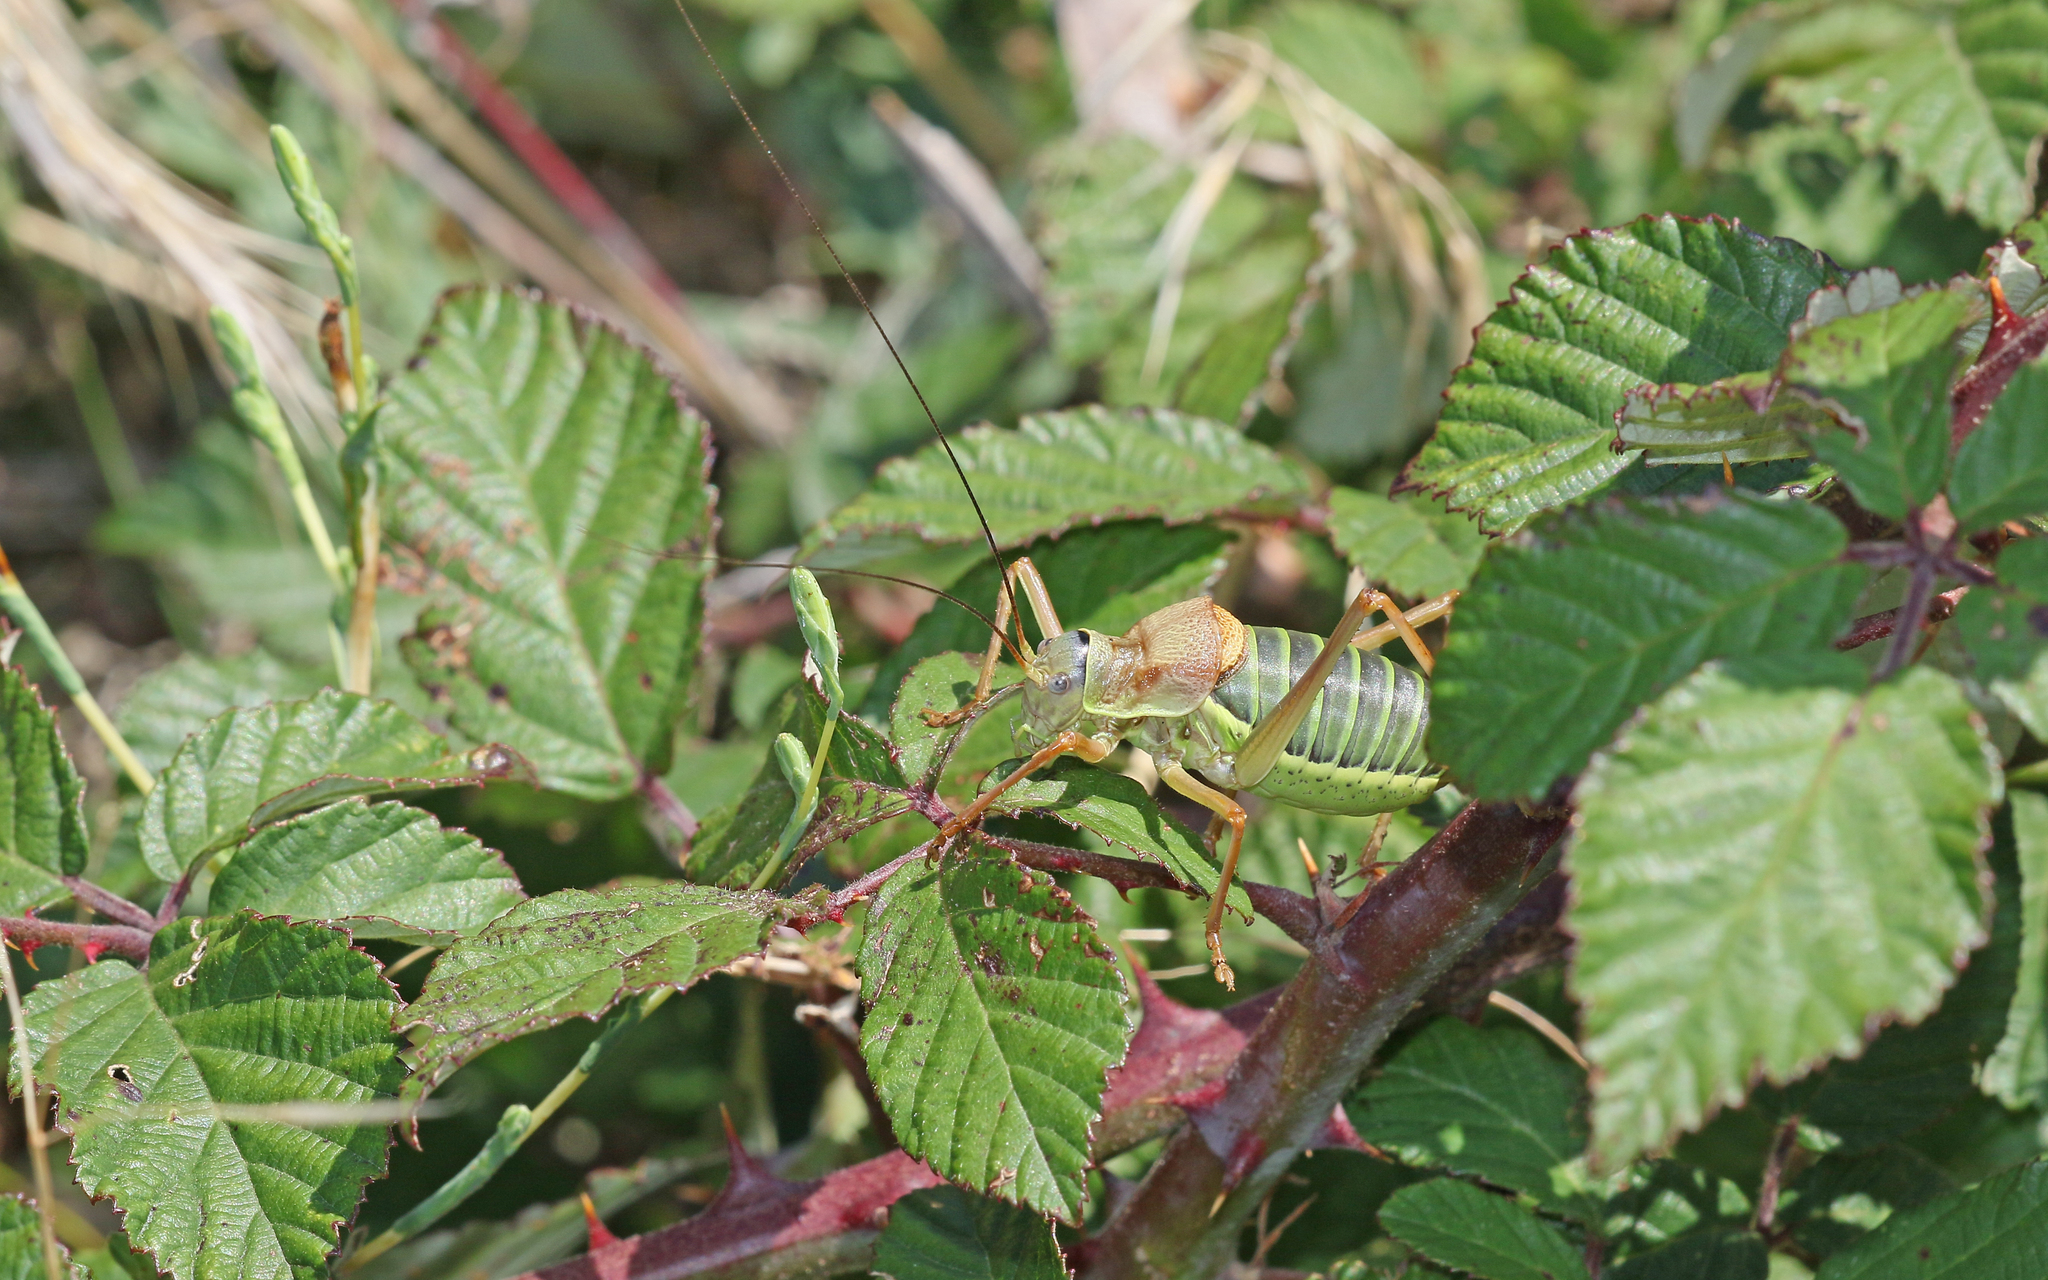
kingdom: Animalia
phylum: Arthropoda
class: Insecta
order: Orthoptera
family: Tettigoniidae
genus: Ephippiger
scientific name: Ephippiger diurnus
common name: Western saddle bush-cricket
